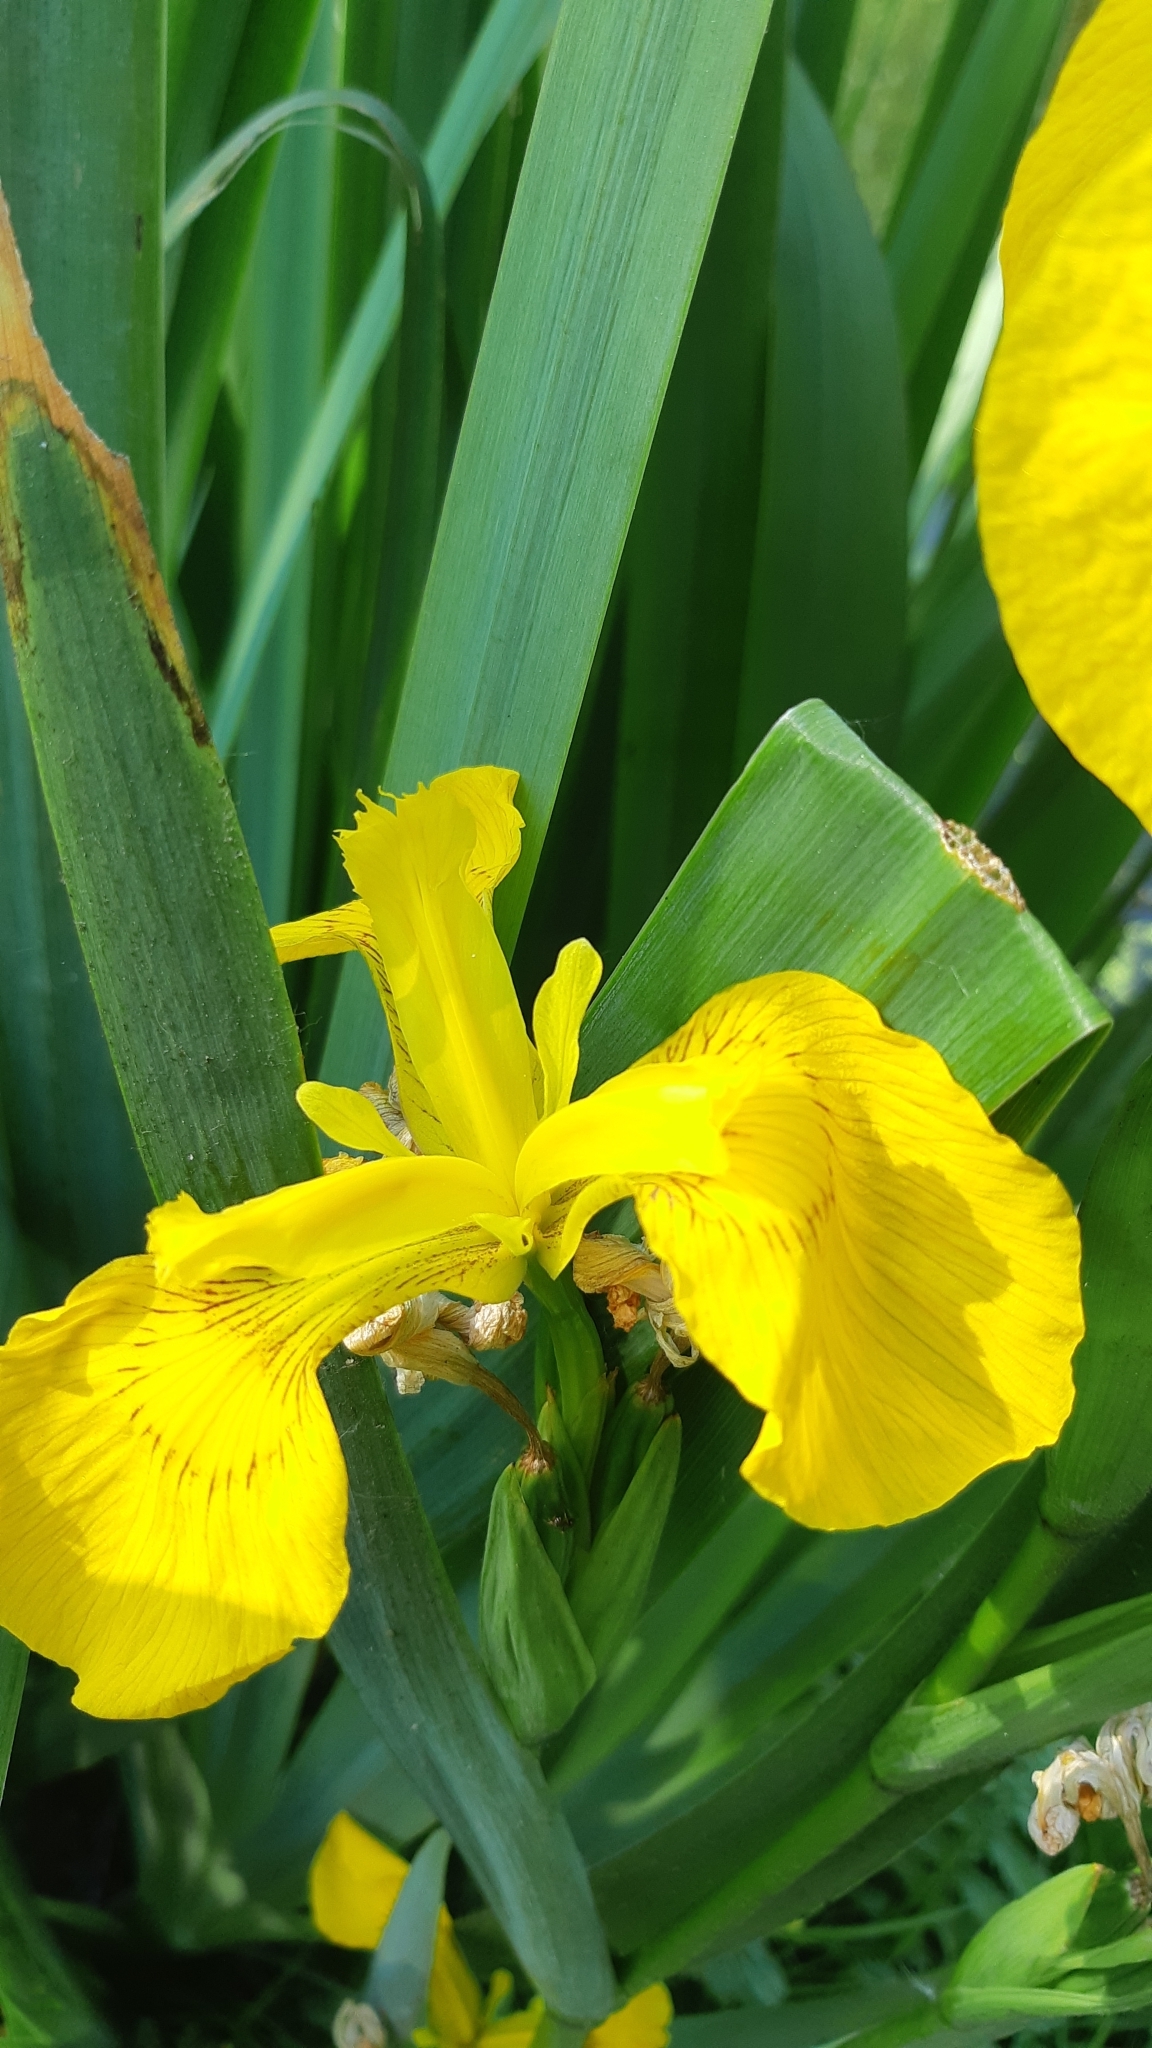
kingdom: Plantae
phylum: Tracheophyta
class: Liliopsida
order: Asparagales
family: Iridaceae
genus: Iris
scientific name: Iris pseudacorus
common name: Yellow flag
